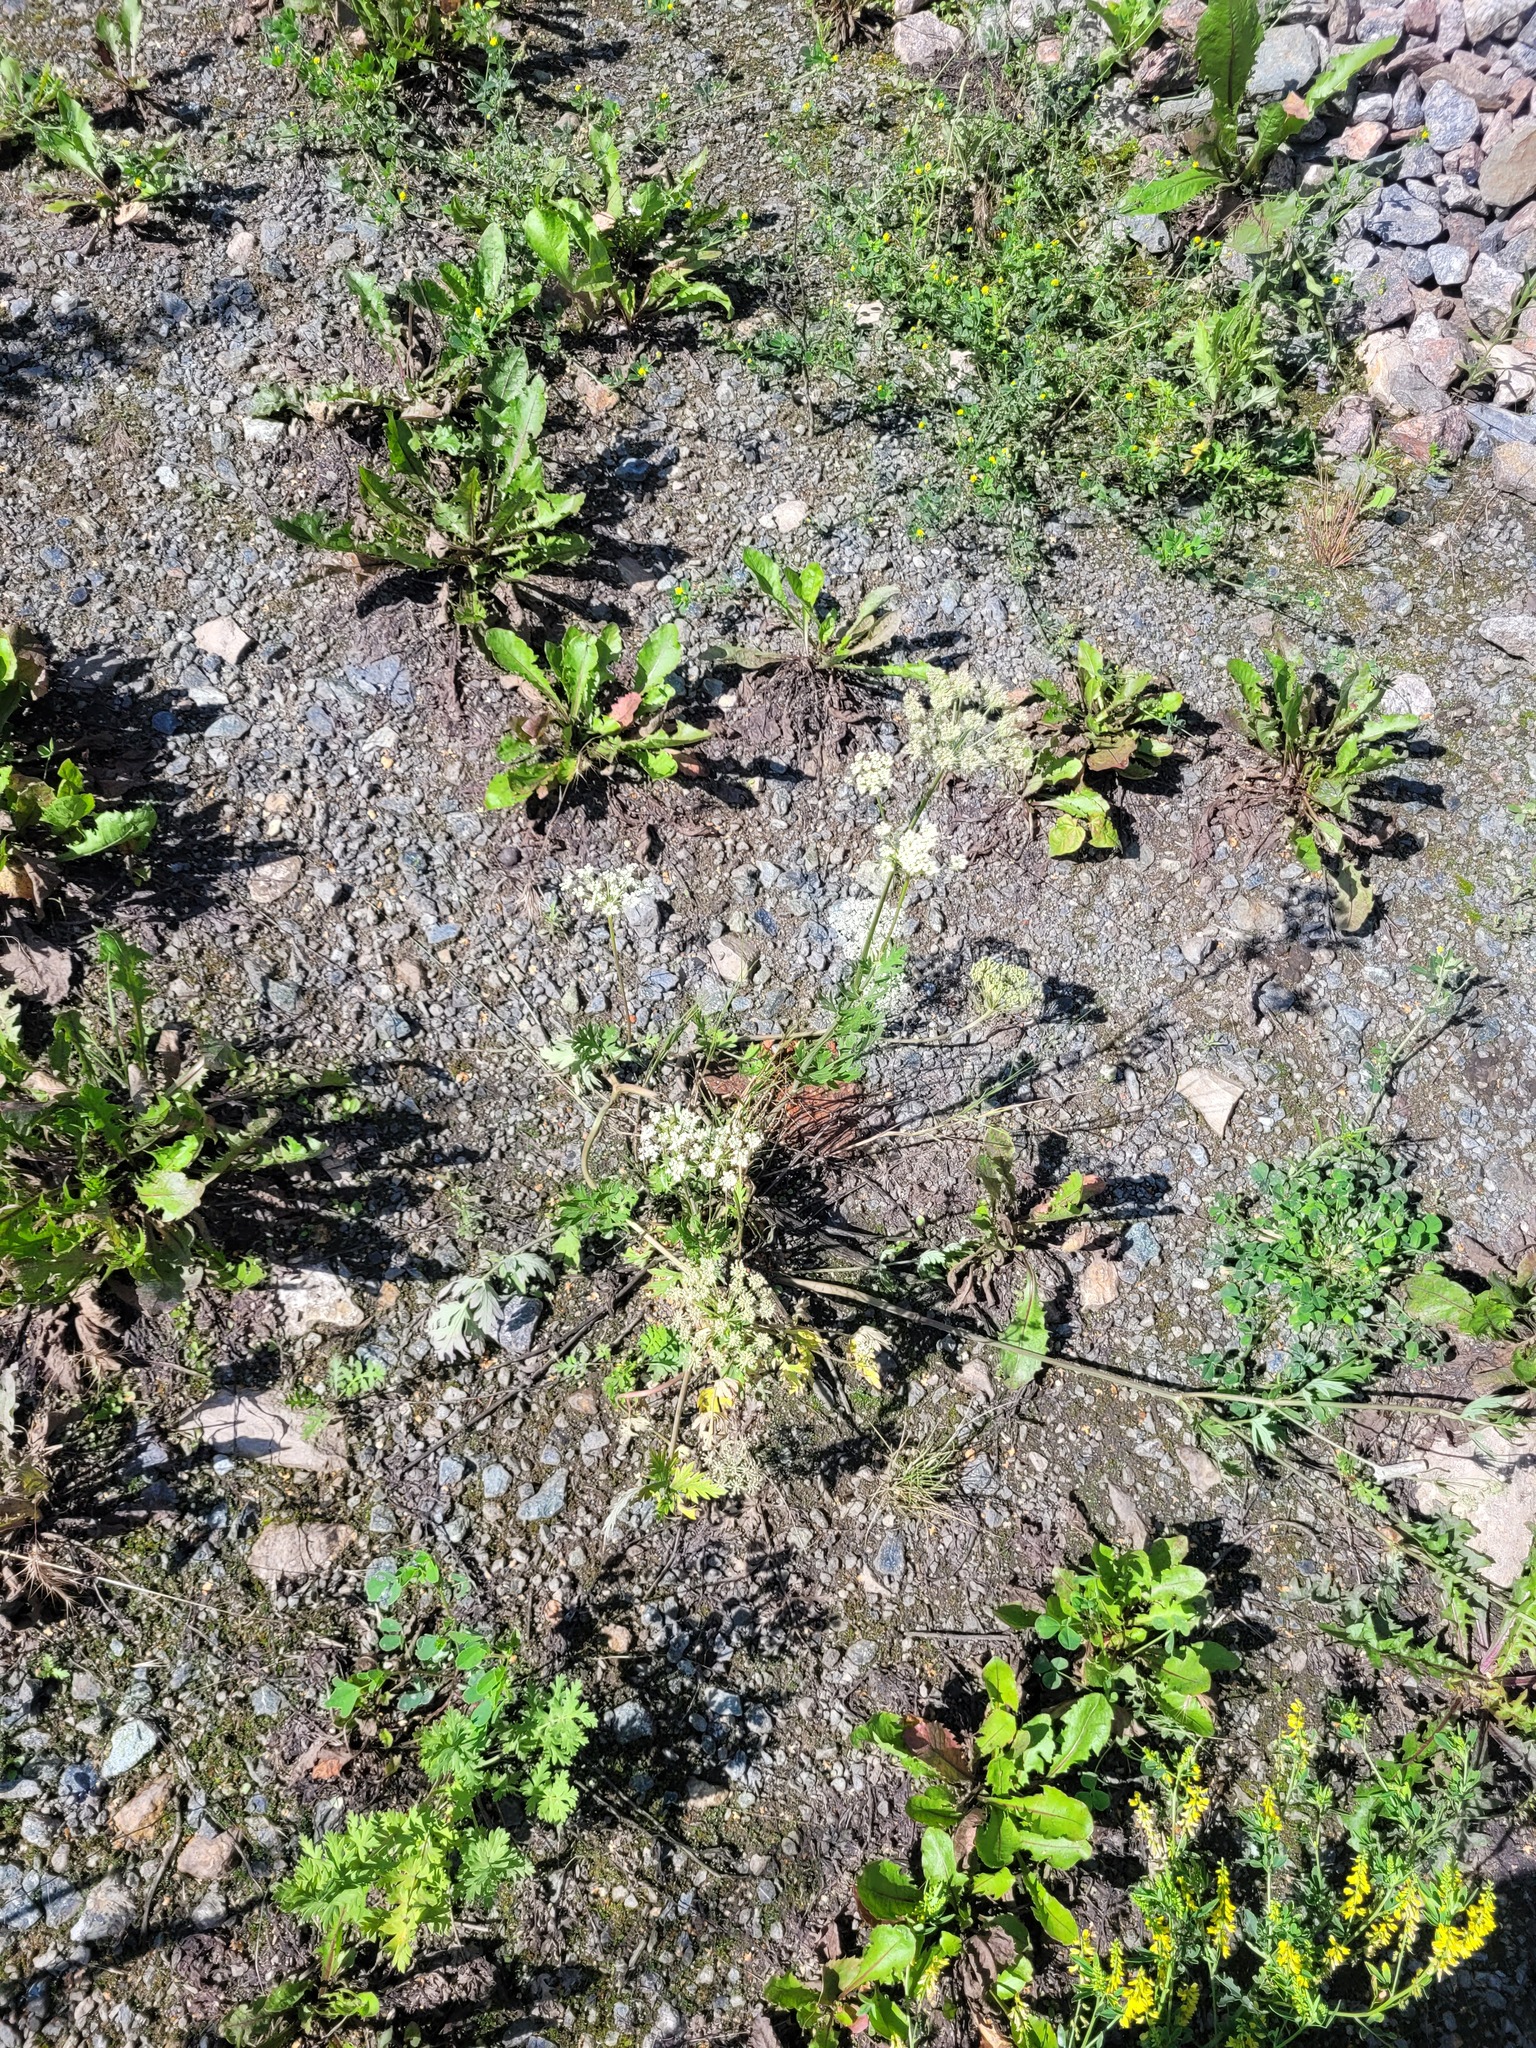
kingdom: Plantae
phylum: Tracheophyta
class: Magnoliopsida
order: Apiales
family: Apiaceae
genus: Pimpinella
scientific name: Pimpinella saxifraga
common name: Burnet-saxifrage
